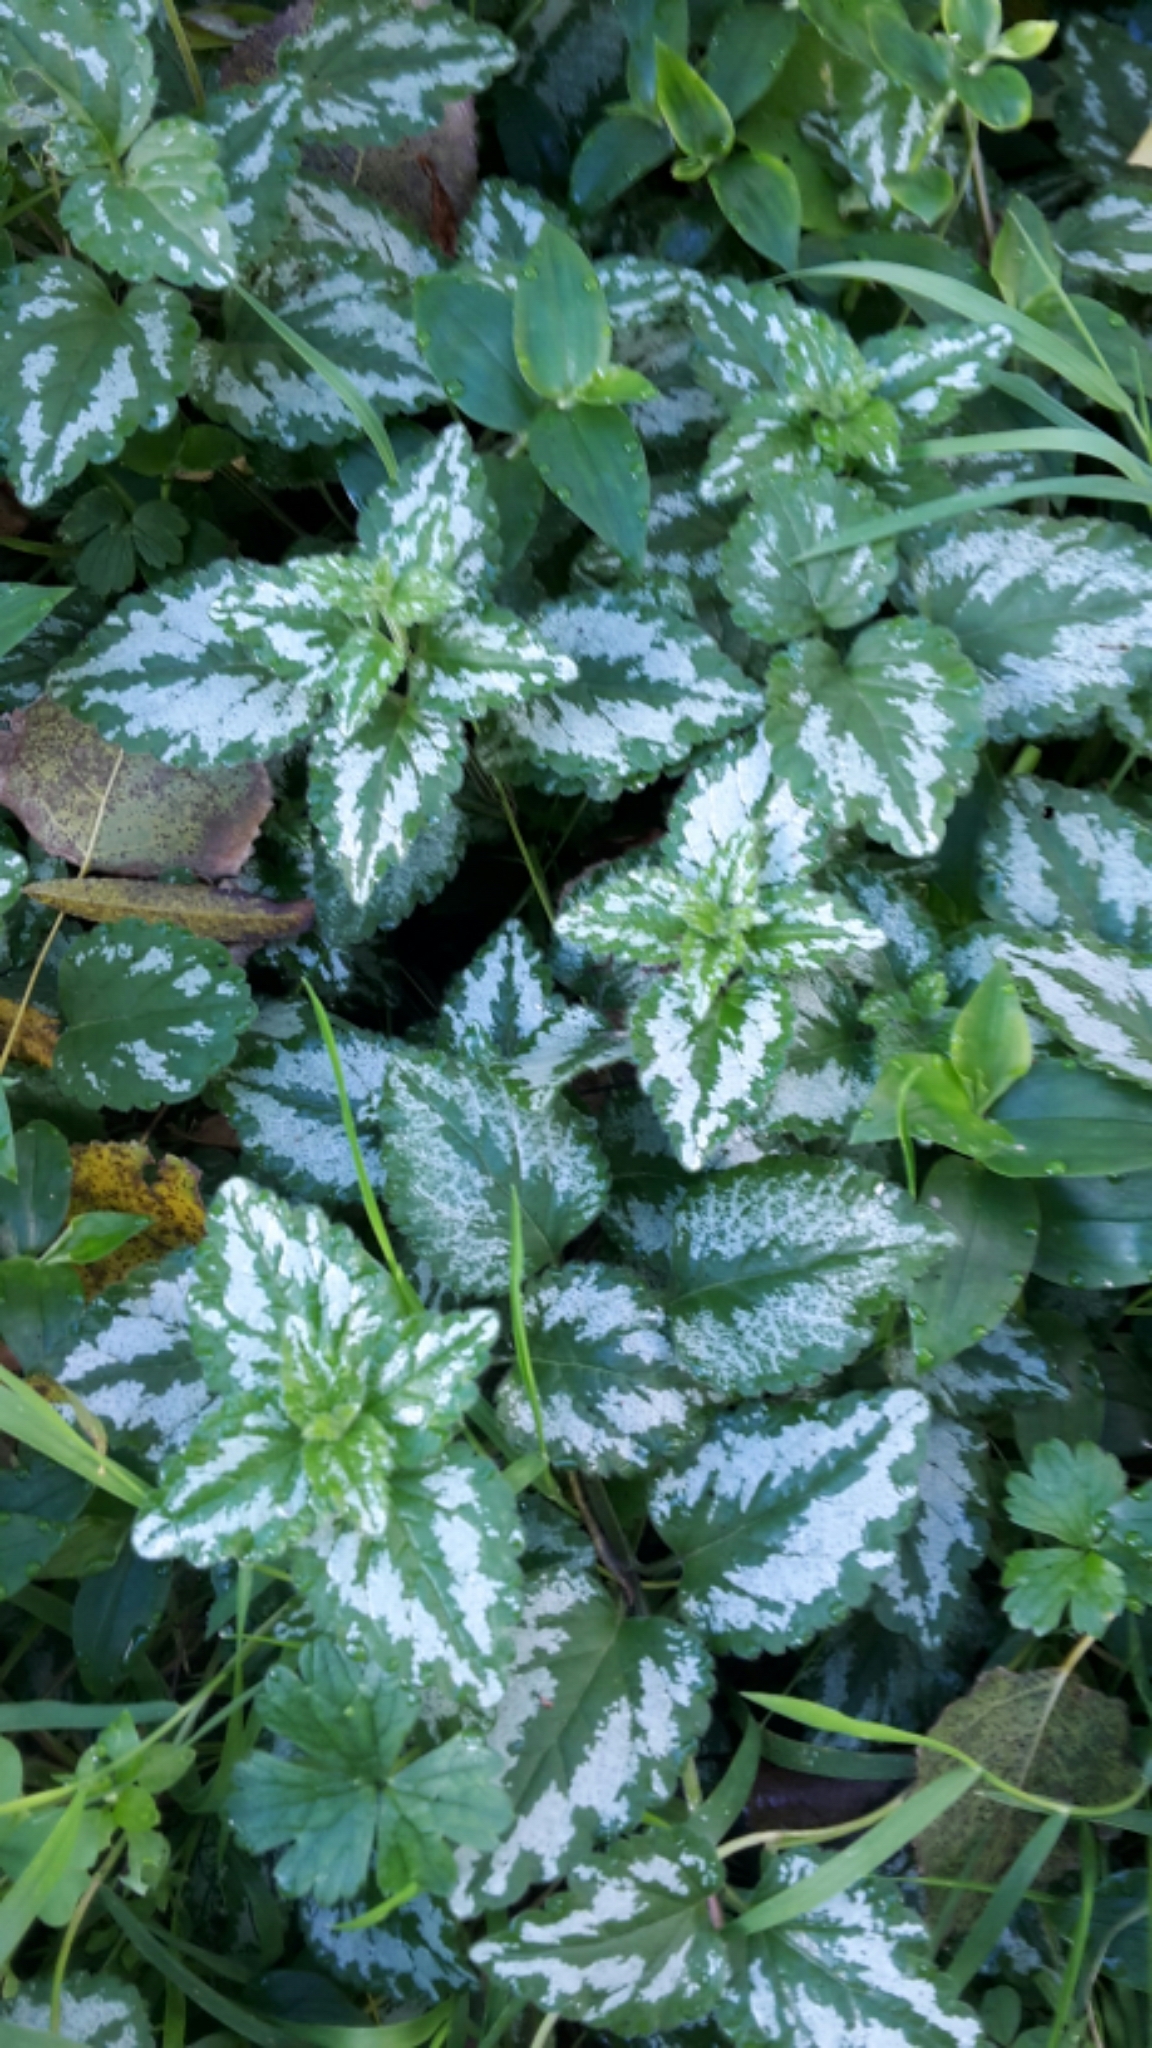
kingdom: Plantae
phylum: Tracheophyta
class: Magnoliopsida
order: Lamiales
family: Lamiaceae
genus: Lamium
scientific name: Lamium galeobdolon
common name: Yellow archangel
